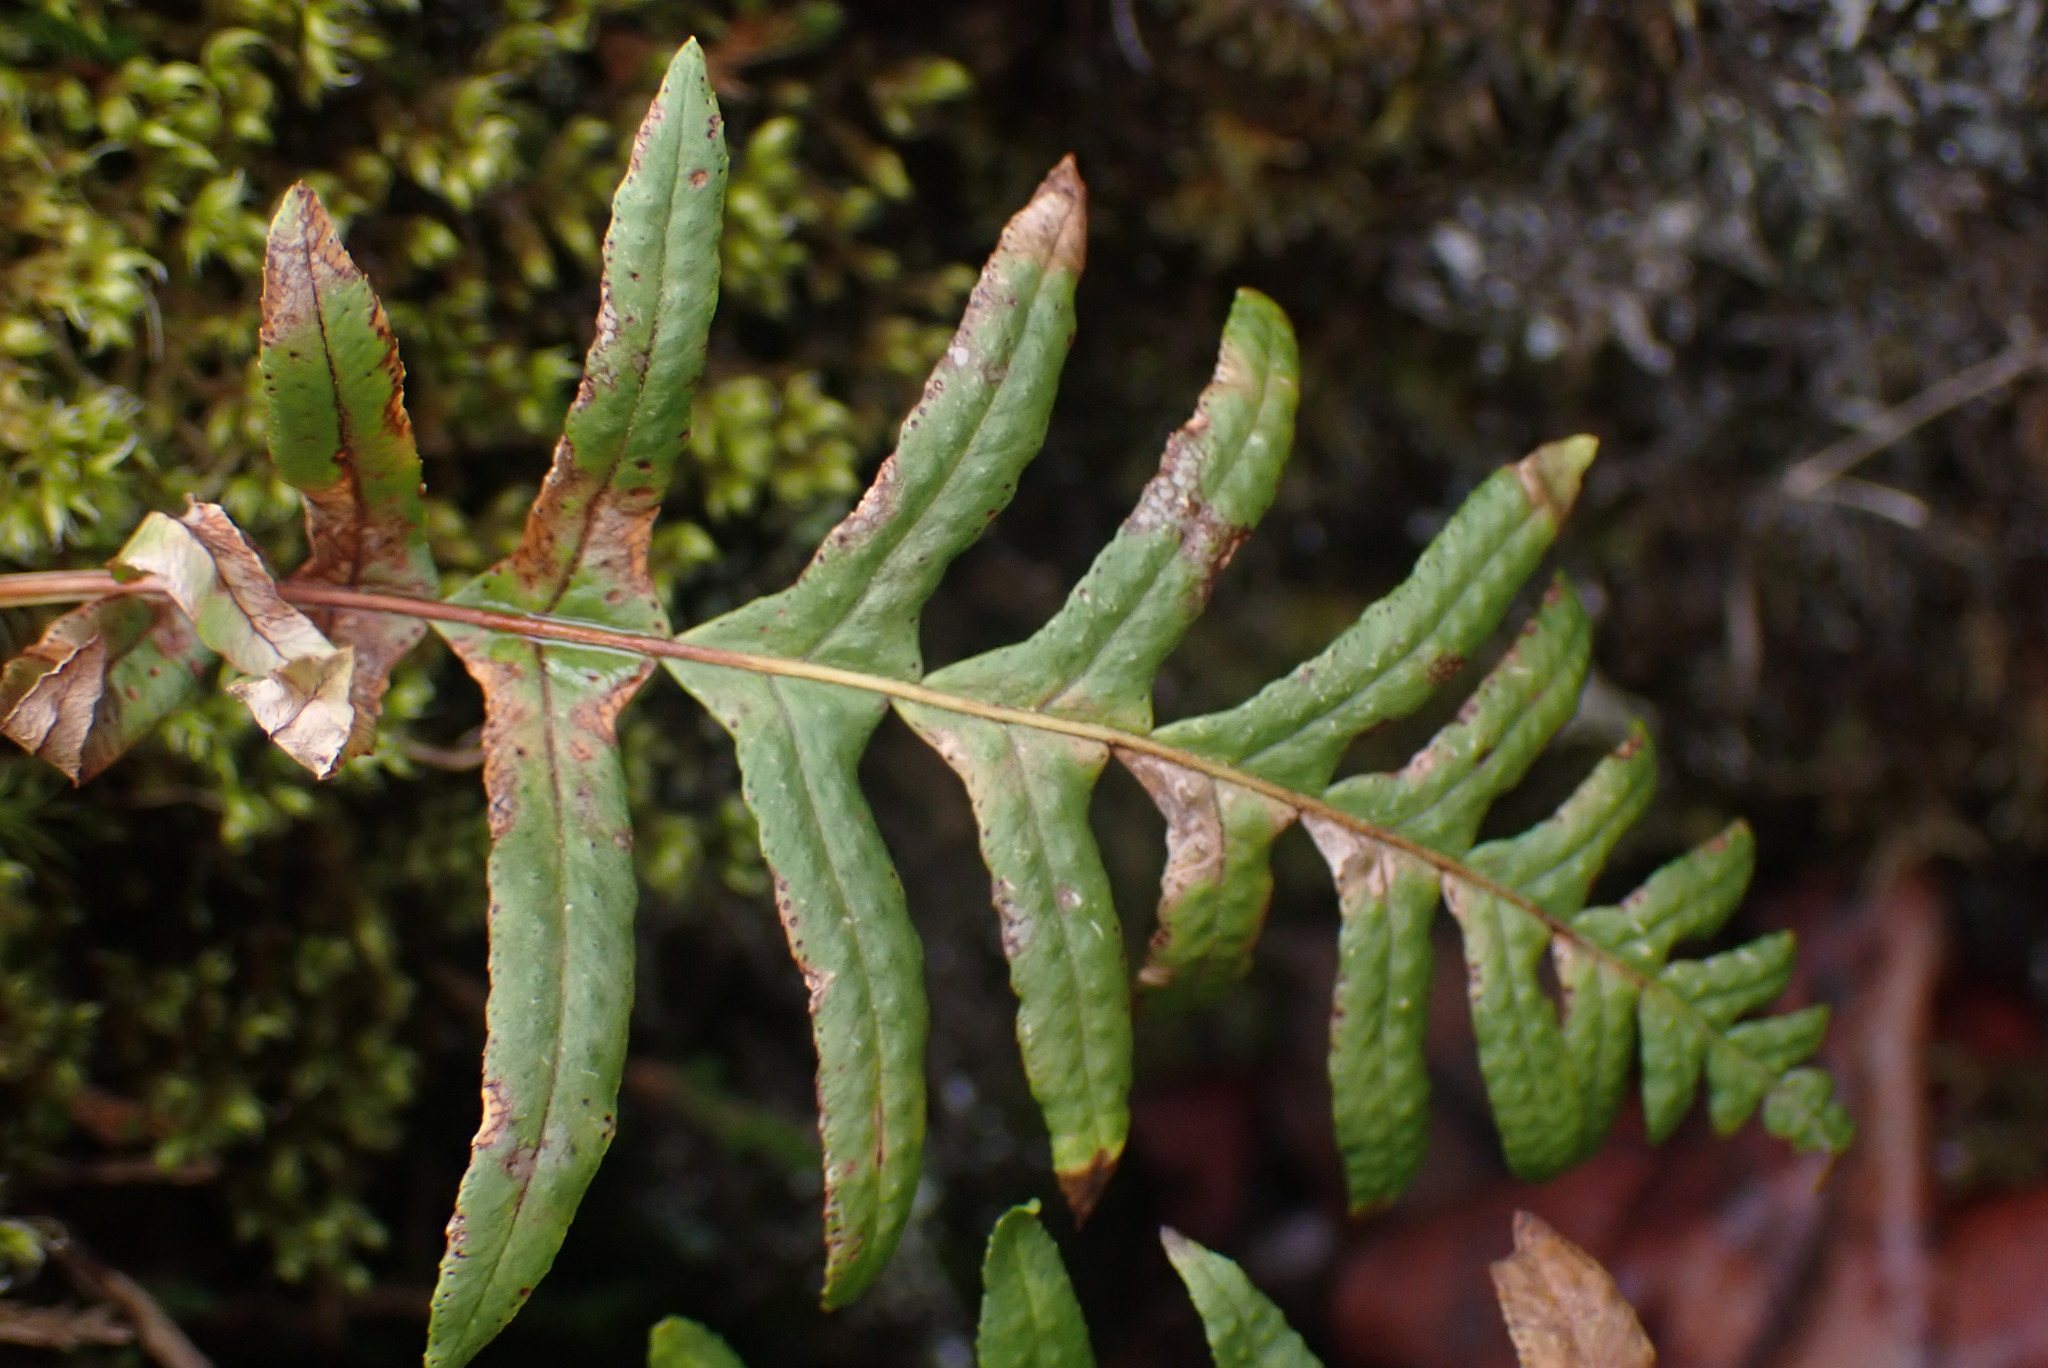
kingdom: Plantae
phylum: Tracheophyta
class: Polypodiopsida
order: Polypodiales
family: Polypodiaceae
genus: Polypodium
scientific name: Polypodium glycyrrhiza
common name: Licorice fern
